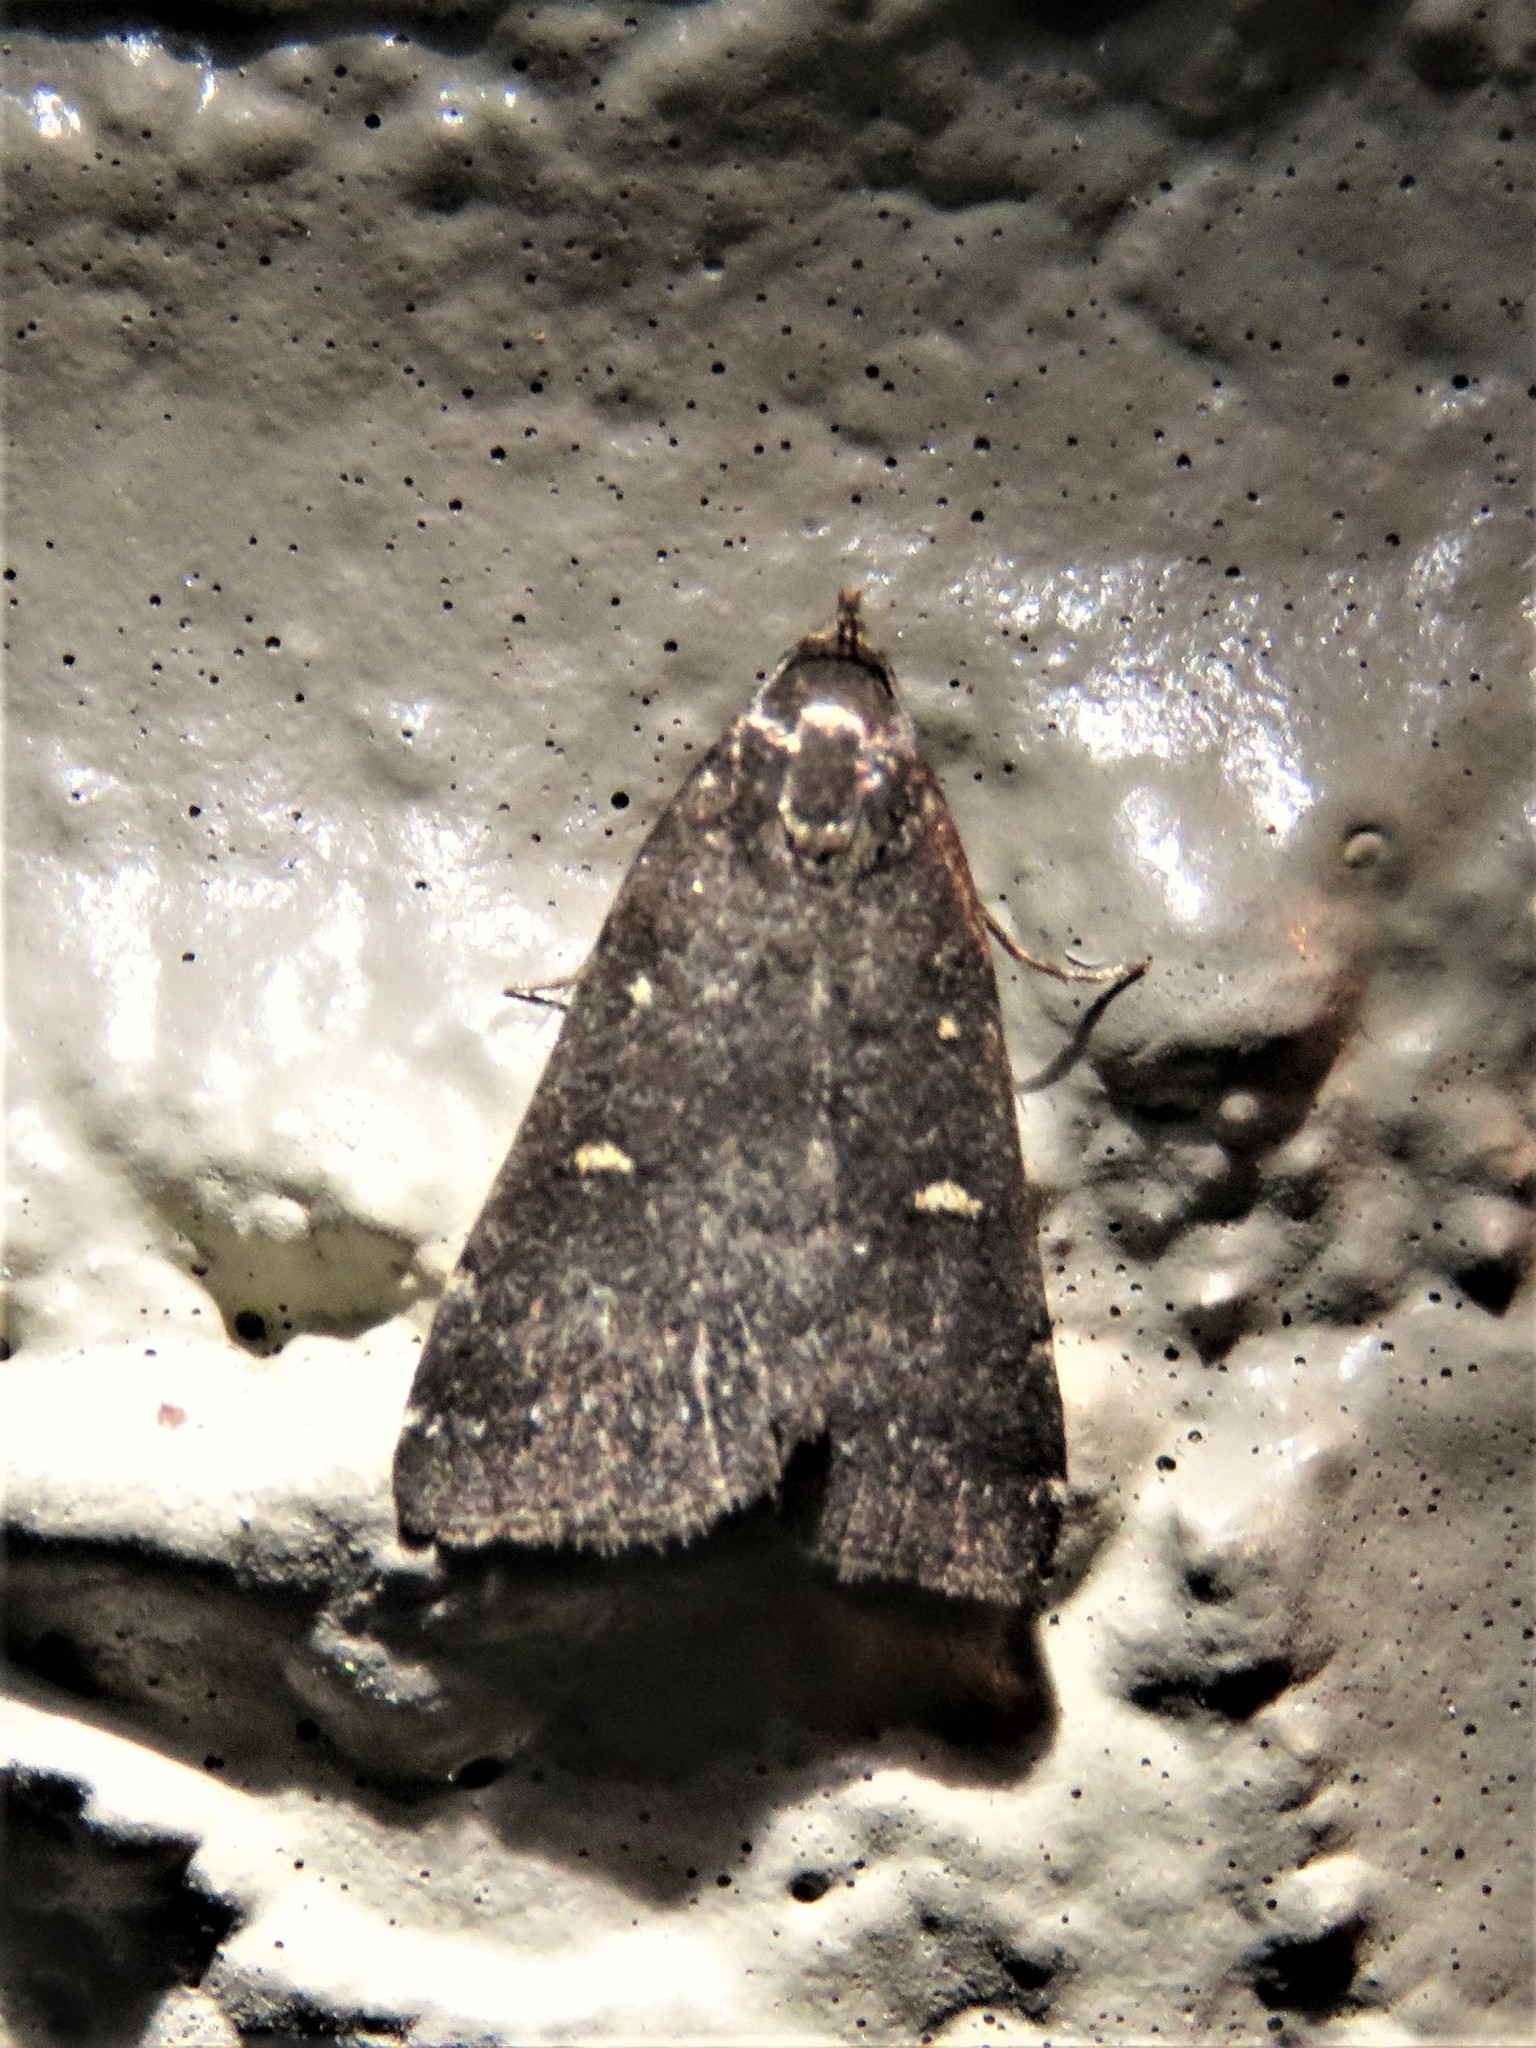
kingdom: Animalia
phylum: Arthropoda
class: Insecta
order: Lepidoptera
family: Erebidae
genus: Tetanolita
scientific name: Tetanolita mynesalis
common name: Smoky tetanolita moth
